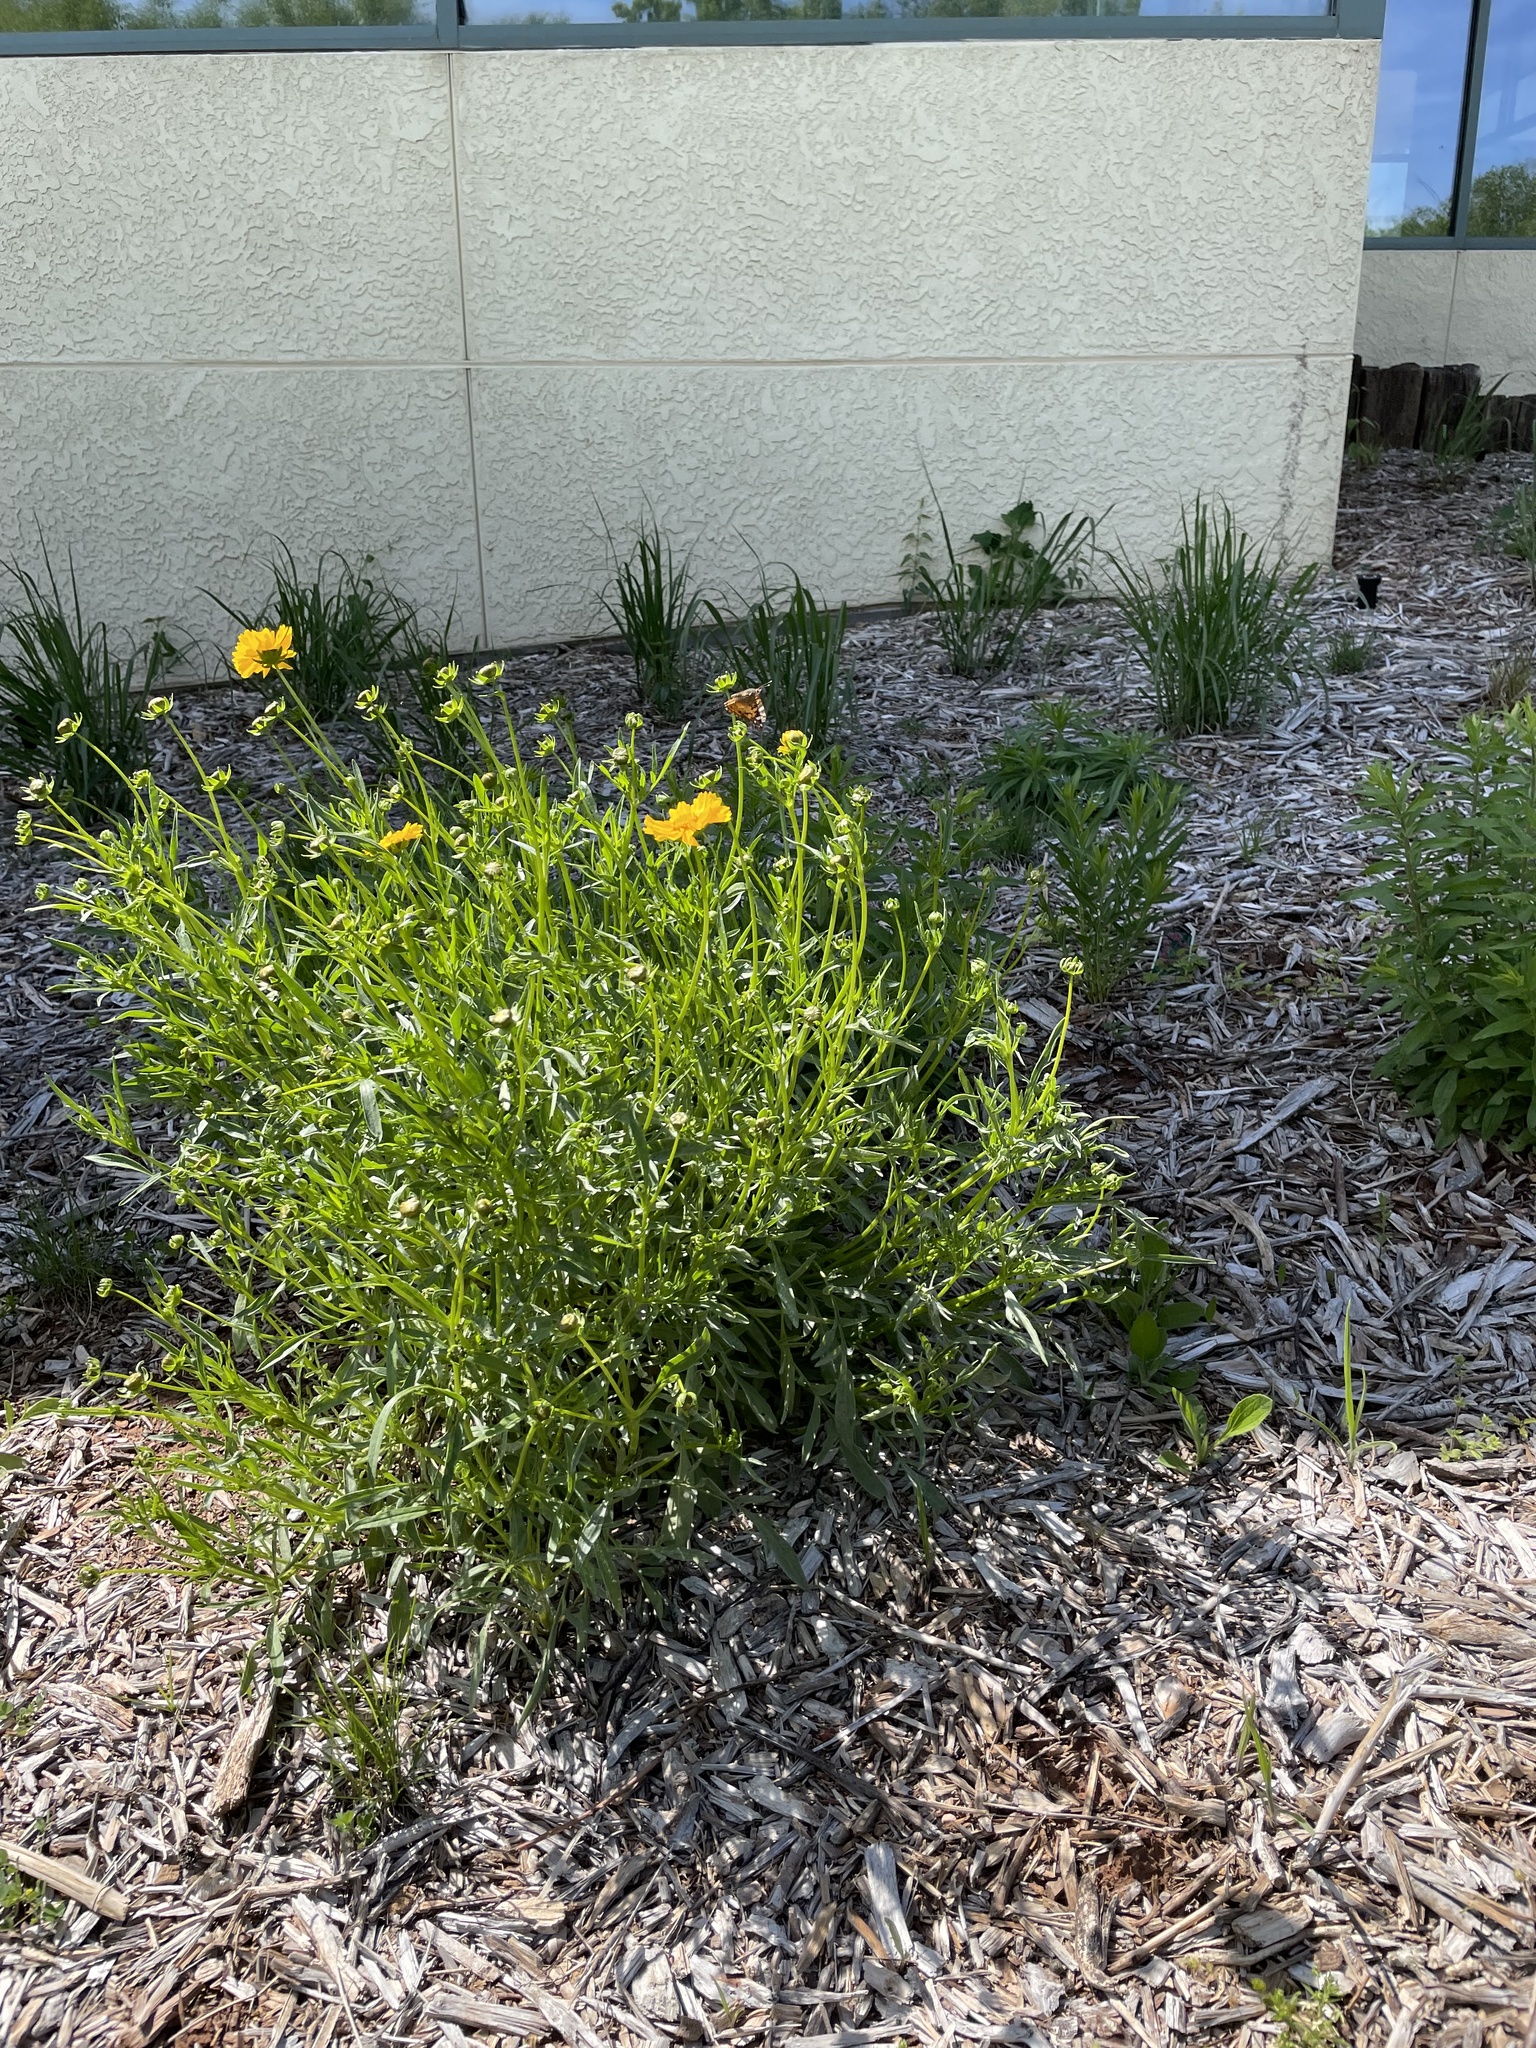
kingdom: Animalia
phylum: Arthropoda
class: Insecta
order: Lepidoptera
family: Nymphalidae
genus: Vanessa
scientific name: Vanessa virginiensis
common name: American lady
